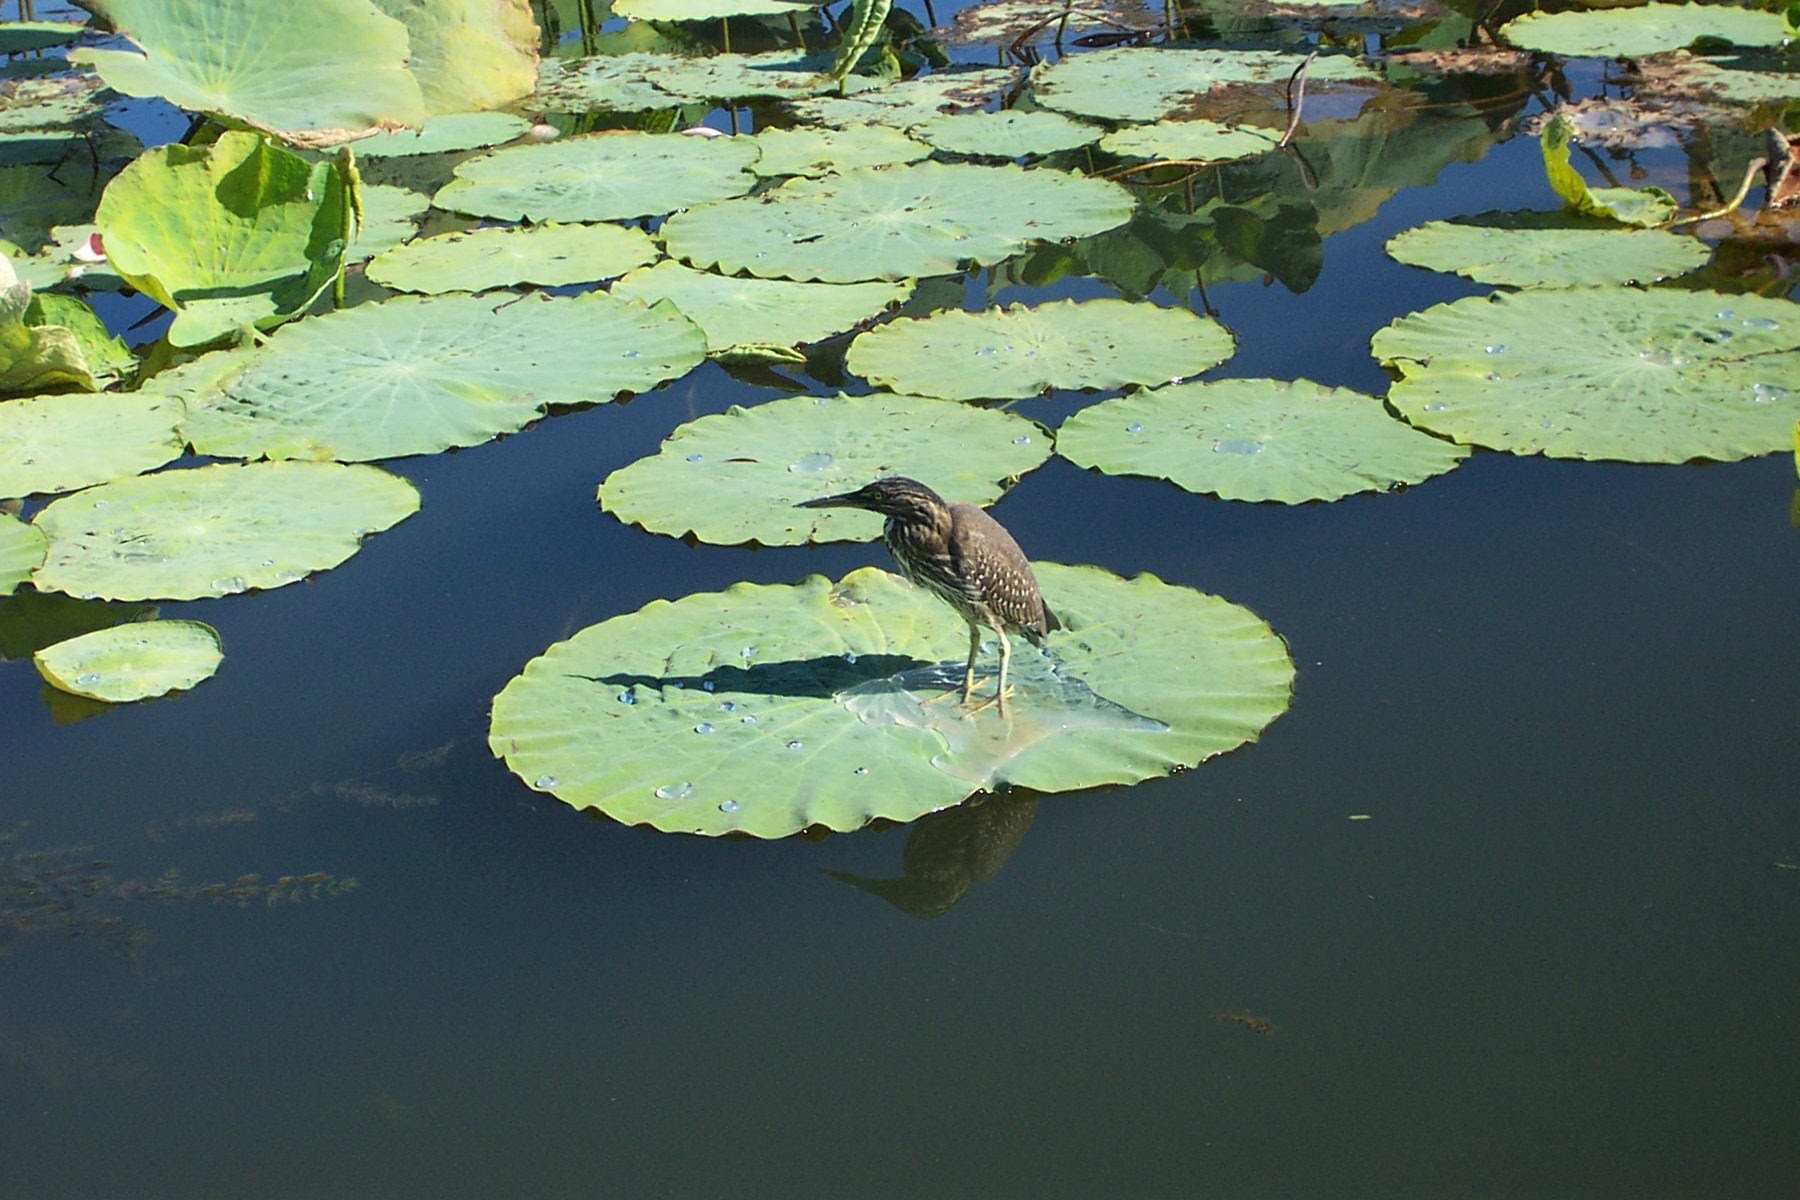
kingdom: Animalia
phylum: Chordata
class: Aves
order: Pelecaniformes
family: Ardeidae
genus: Butorides
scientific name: Butorides striata
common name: Striated heron
